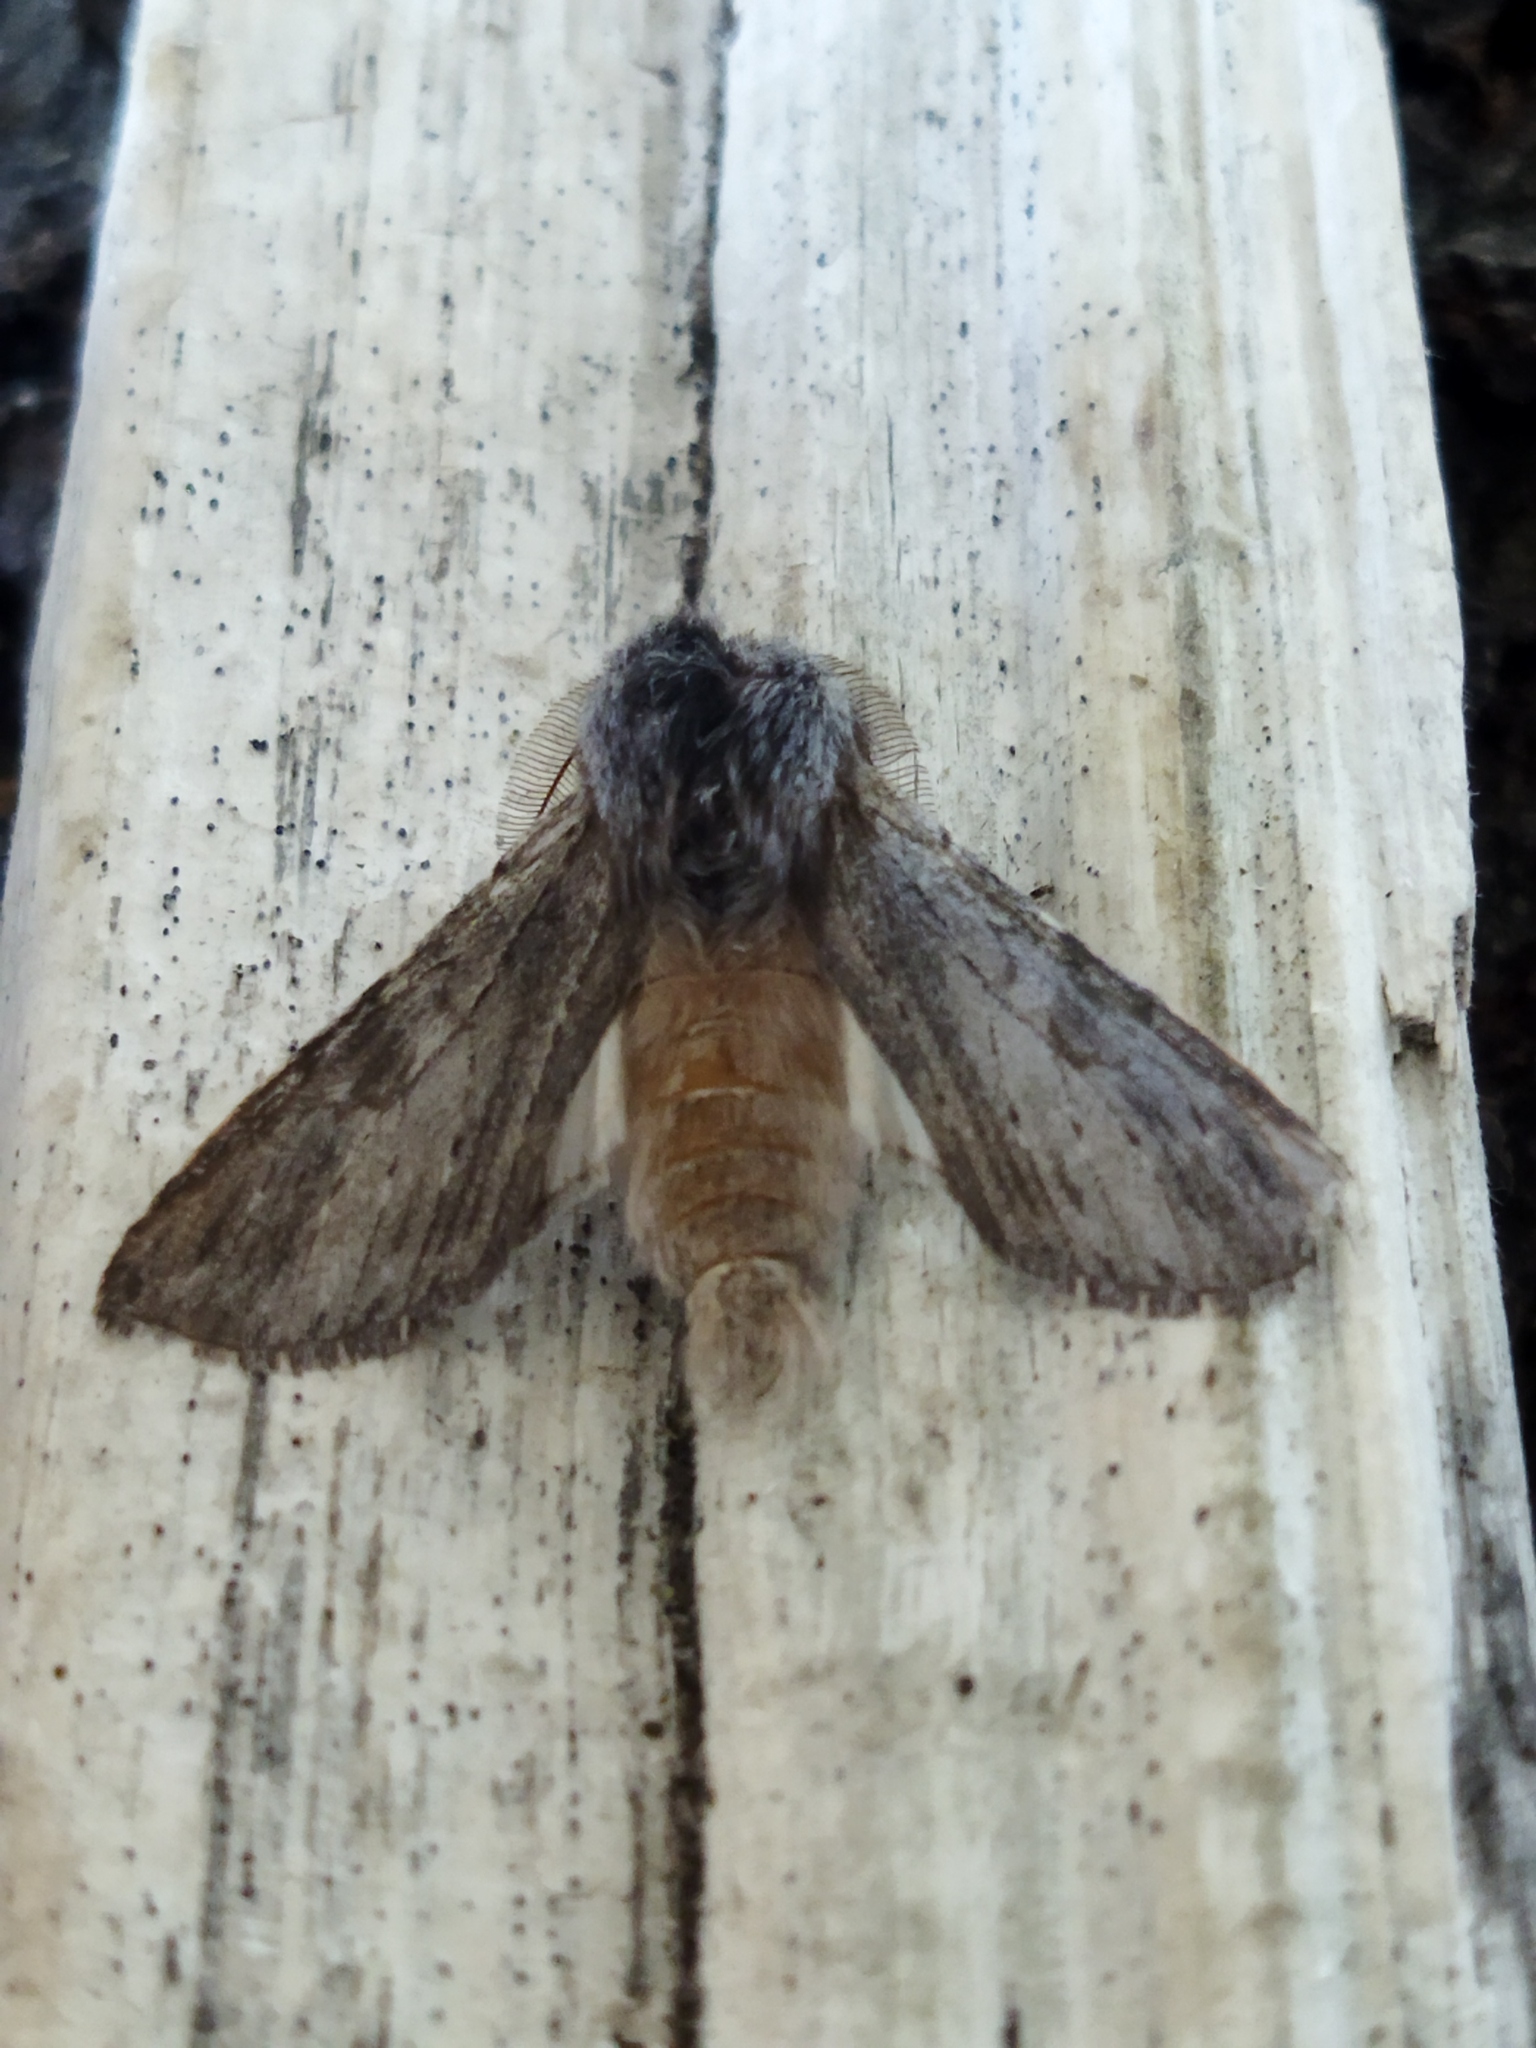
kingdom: Animalia
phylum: Arthropoda
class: Insecta
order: Lepidoptera
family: Notodontidae
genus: Dicranura
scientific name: Dicranura ulmi
